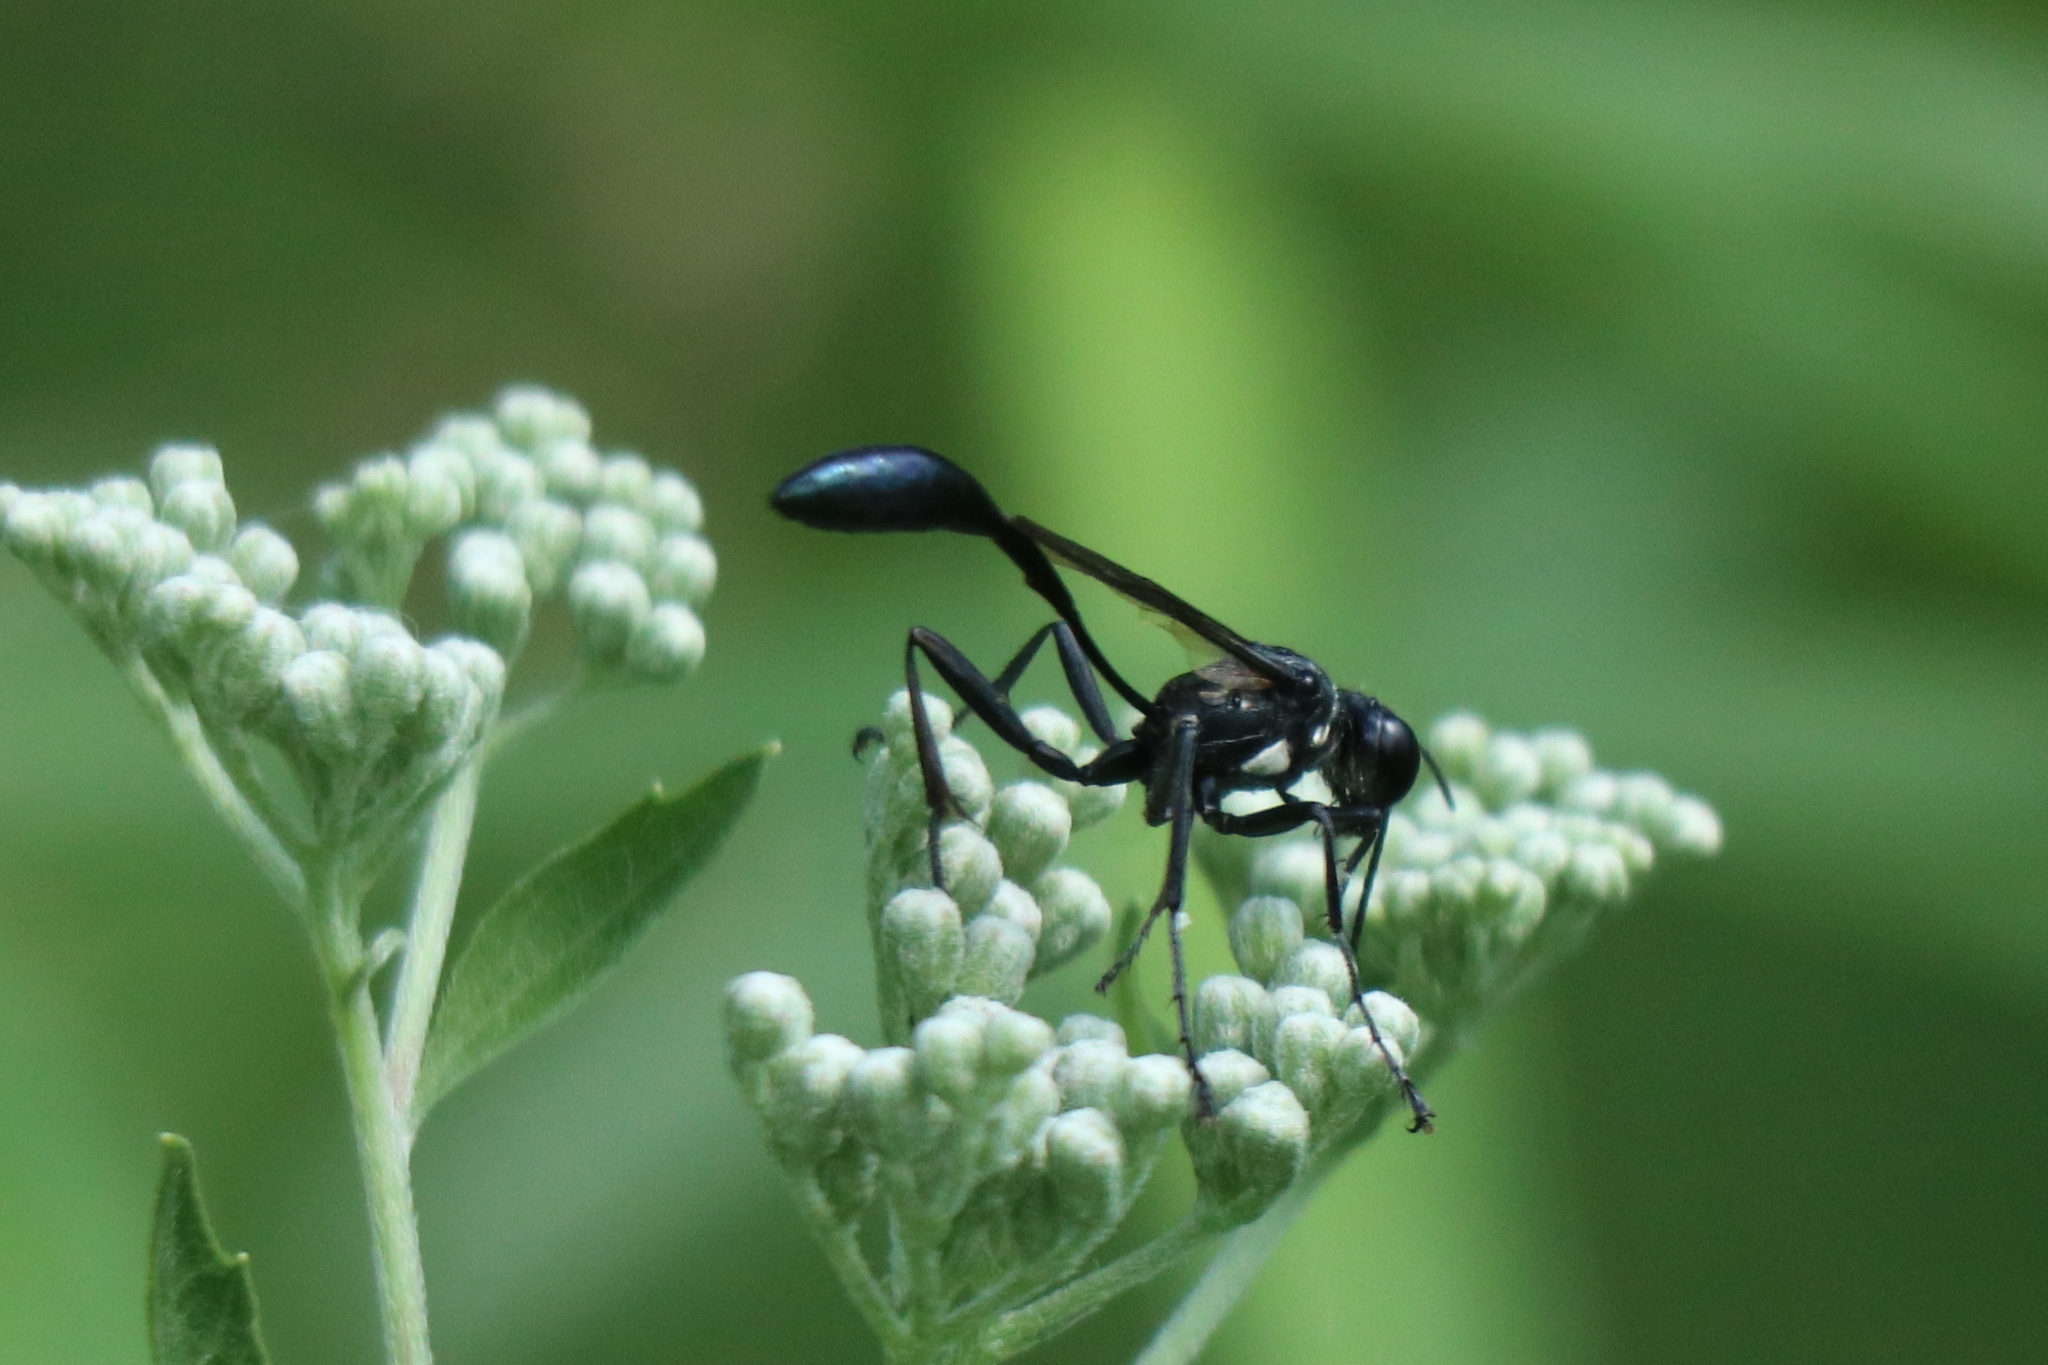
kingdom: Animalia
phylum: Arthropoda
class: Insecta
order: Hymenoptera
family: Sphecidae
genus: Eremnophila
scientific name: Eremnophila aureonotata
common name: Gold-marked thread-waisted wasp
